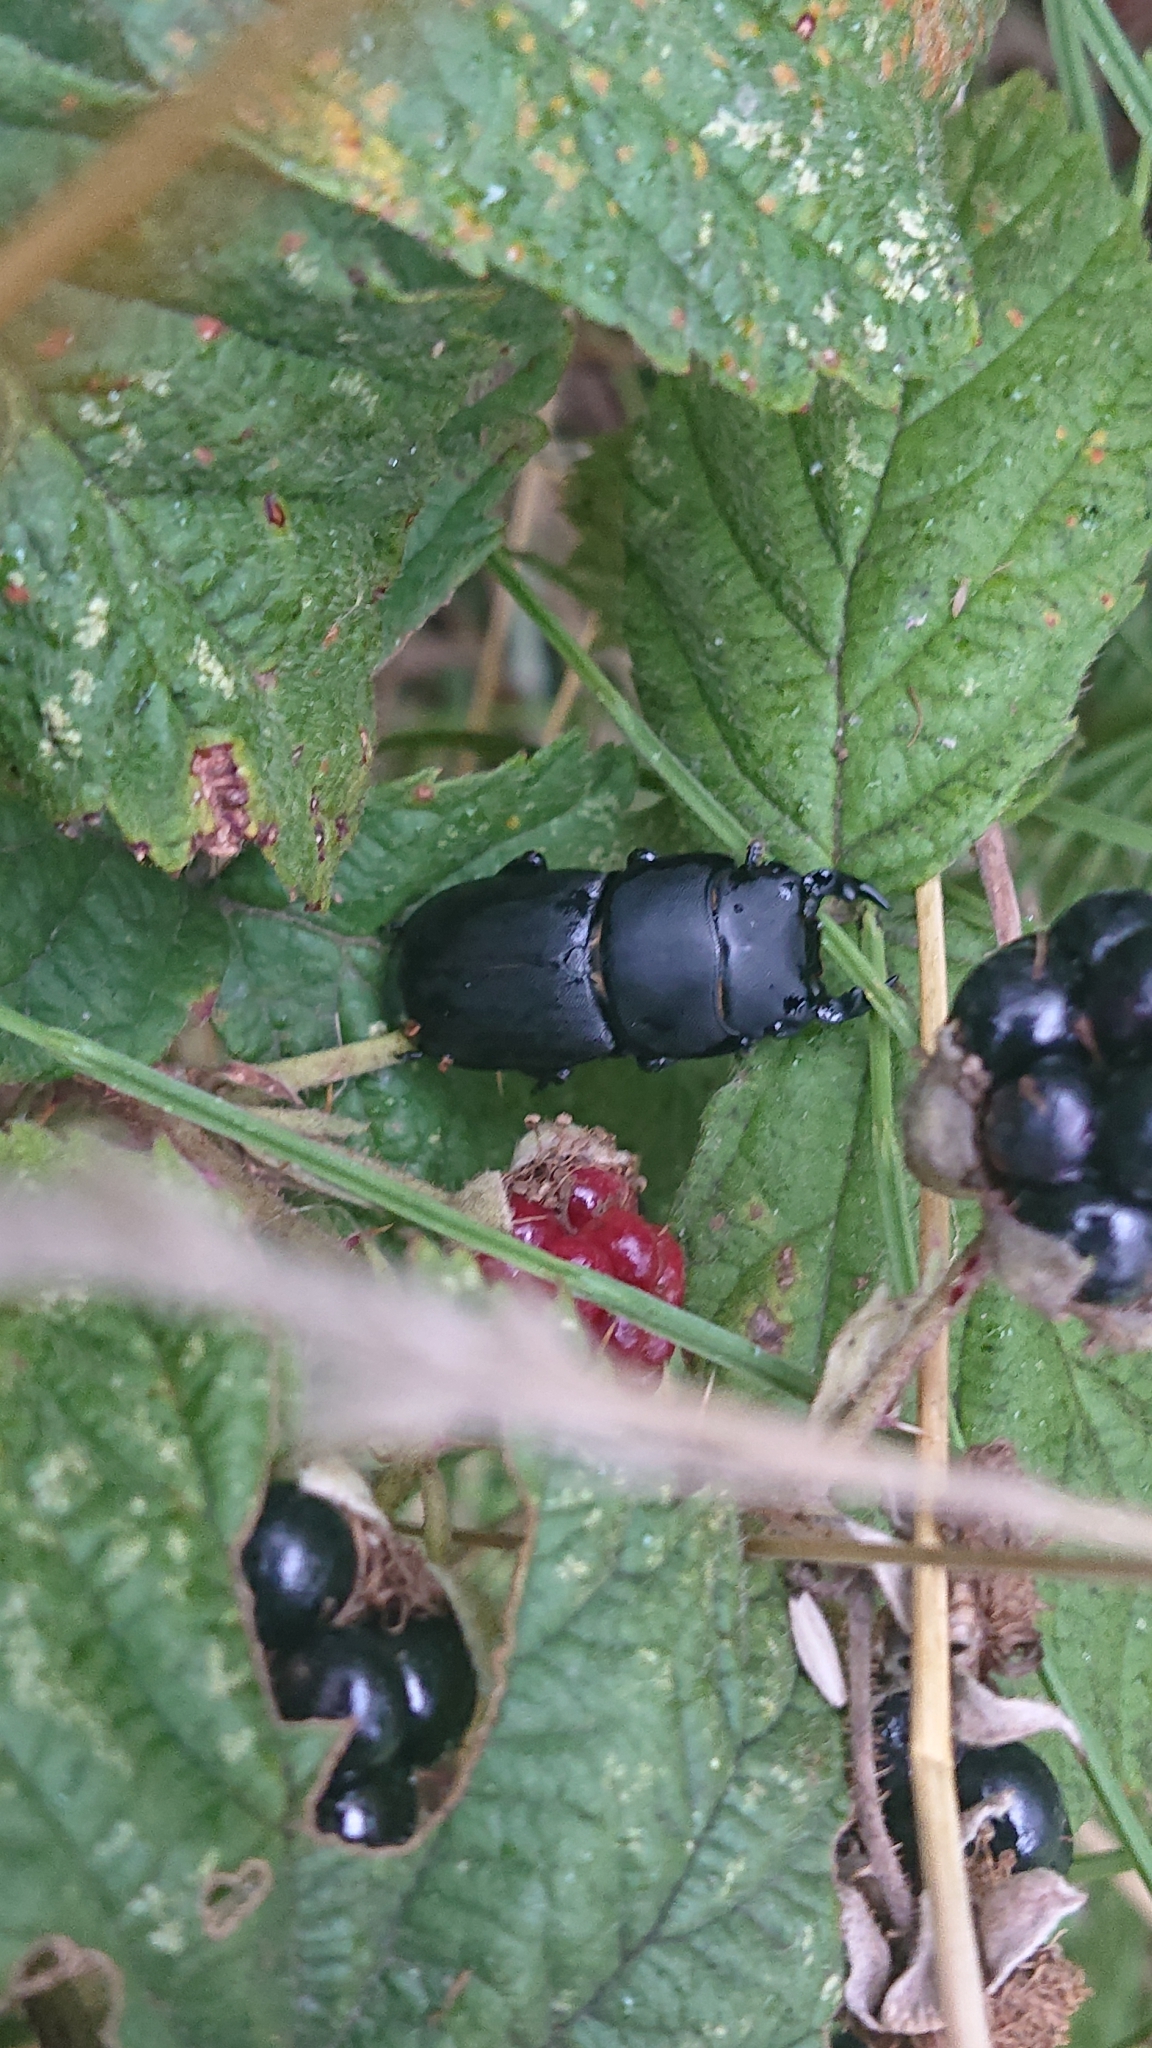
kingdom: Animalia
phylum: Arthropoda
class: Insecta
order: Coleoptera
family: Lucanidae
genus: Dorcus
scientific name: Dorcus parallelipipedus
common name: Lesser stag beetle
